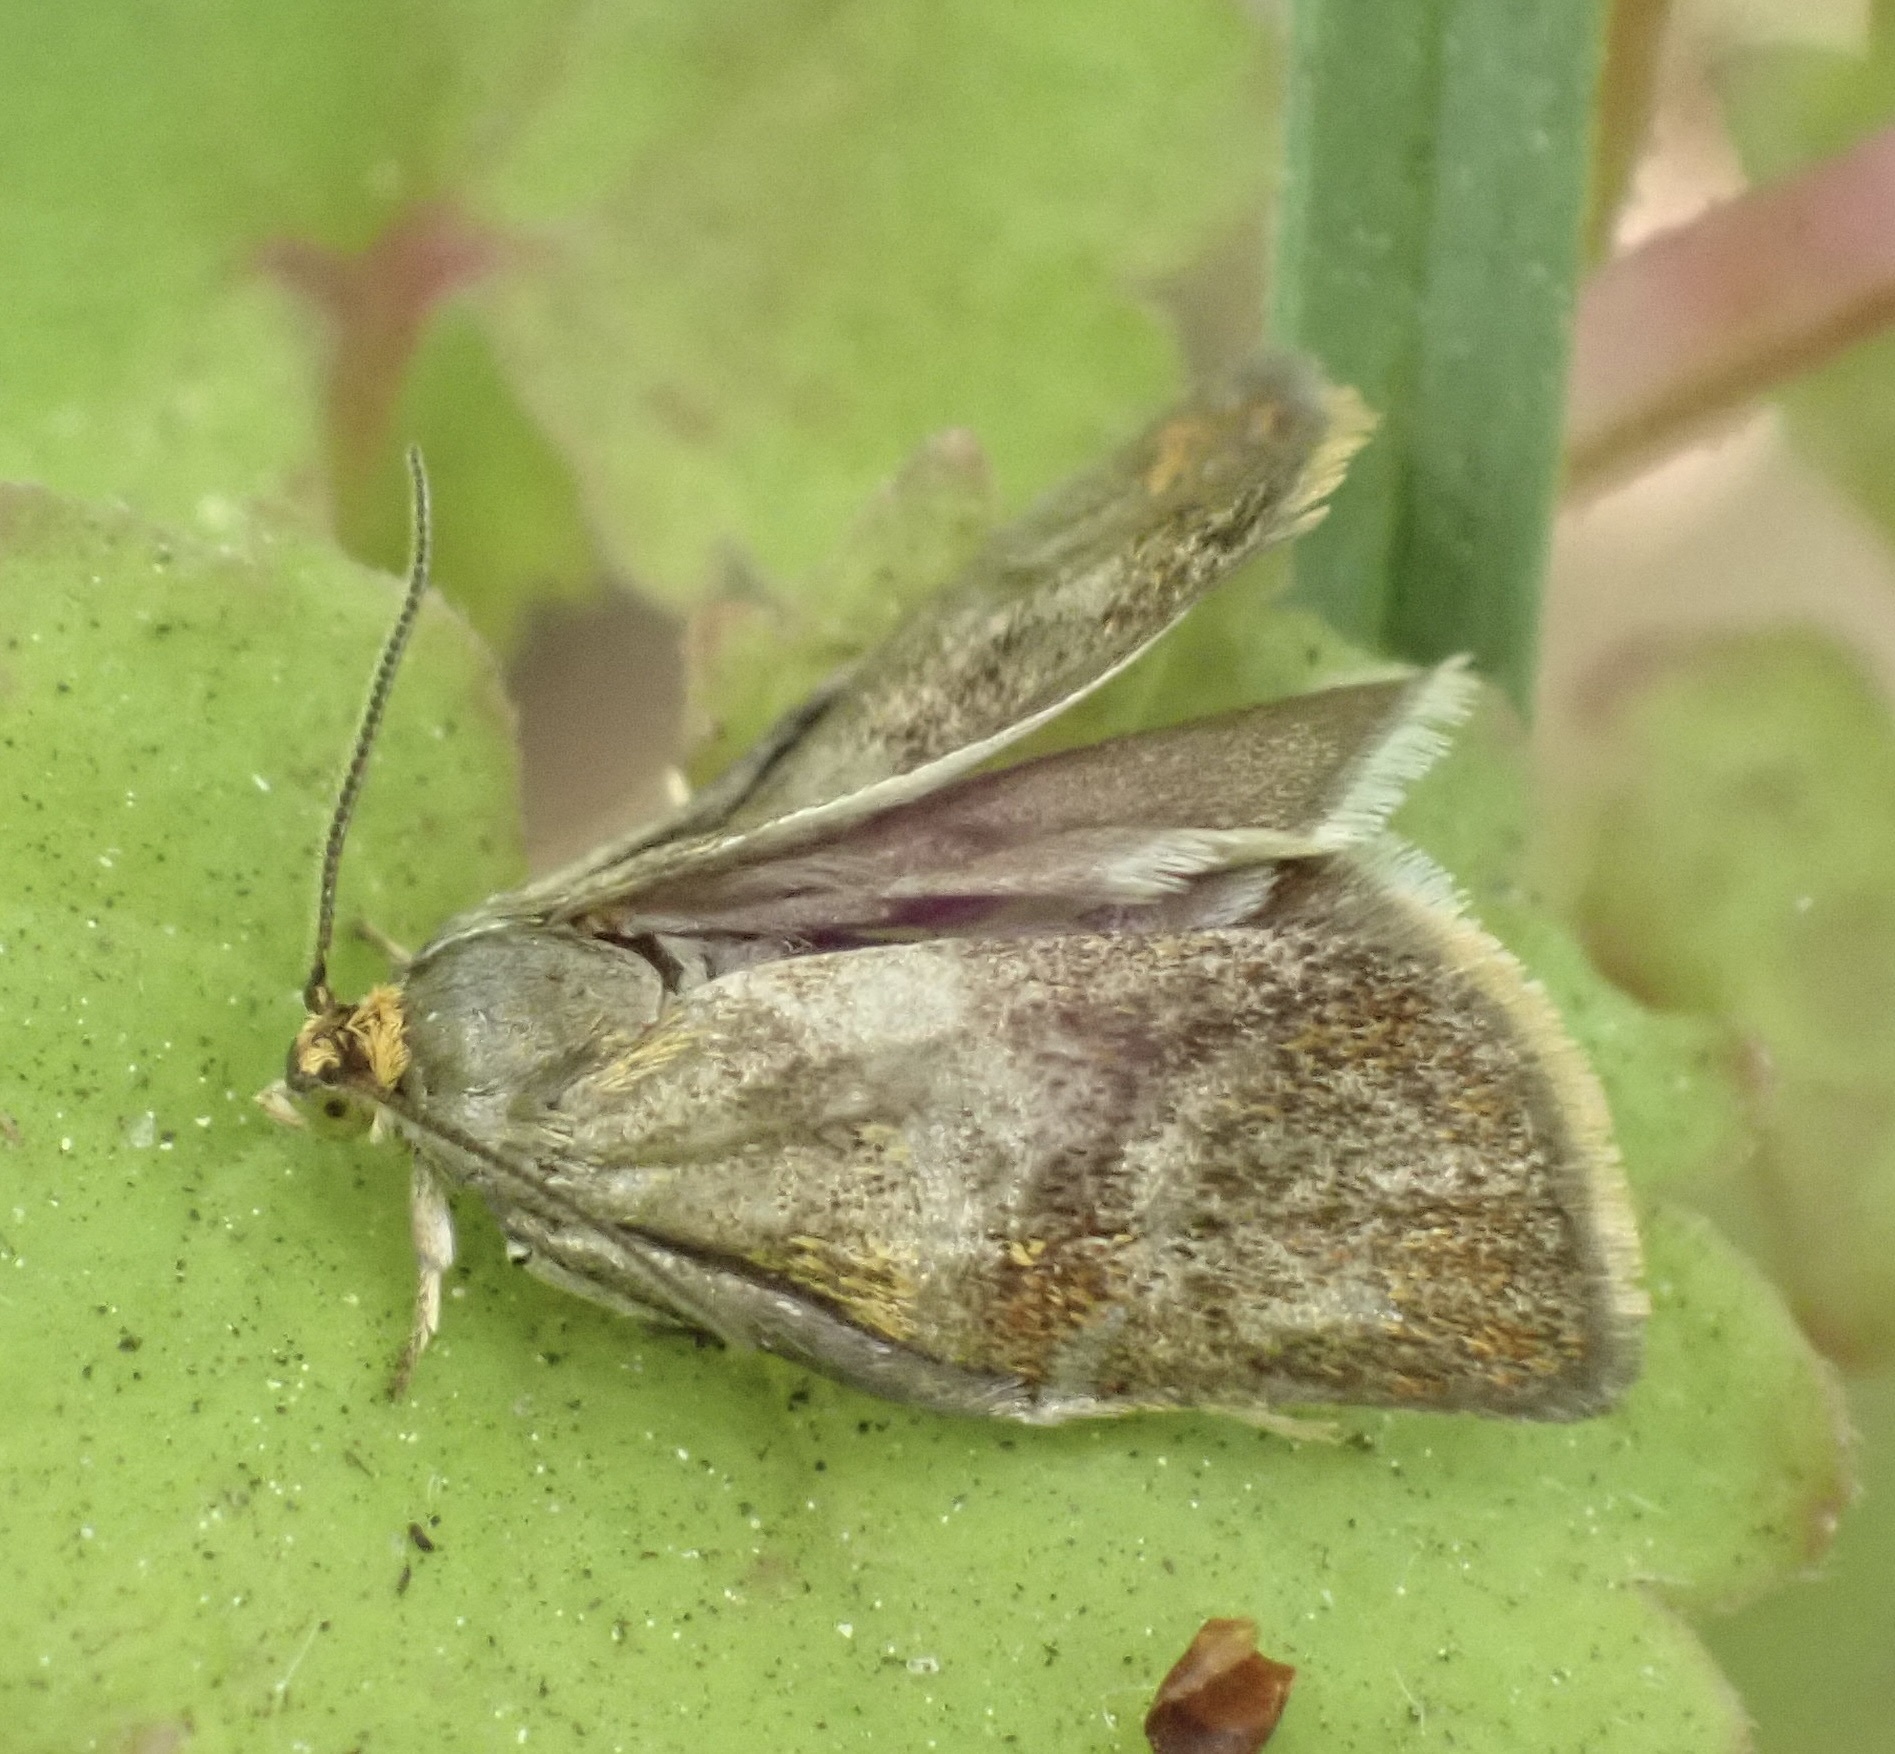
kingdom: Animalia
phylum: Arthropoda
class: Insecta
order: Lepidoptera
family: Tortricidae
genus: Ptycholoma
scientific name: Ptycholoma lecheana
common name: Leches twist moth
